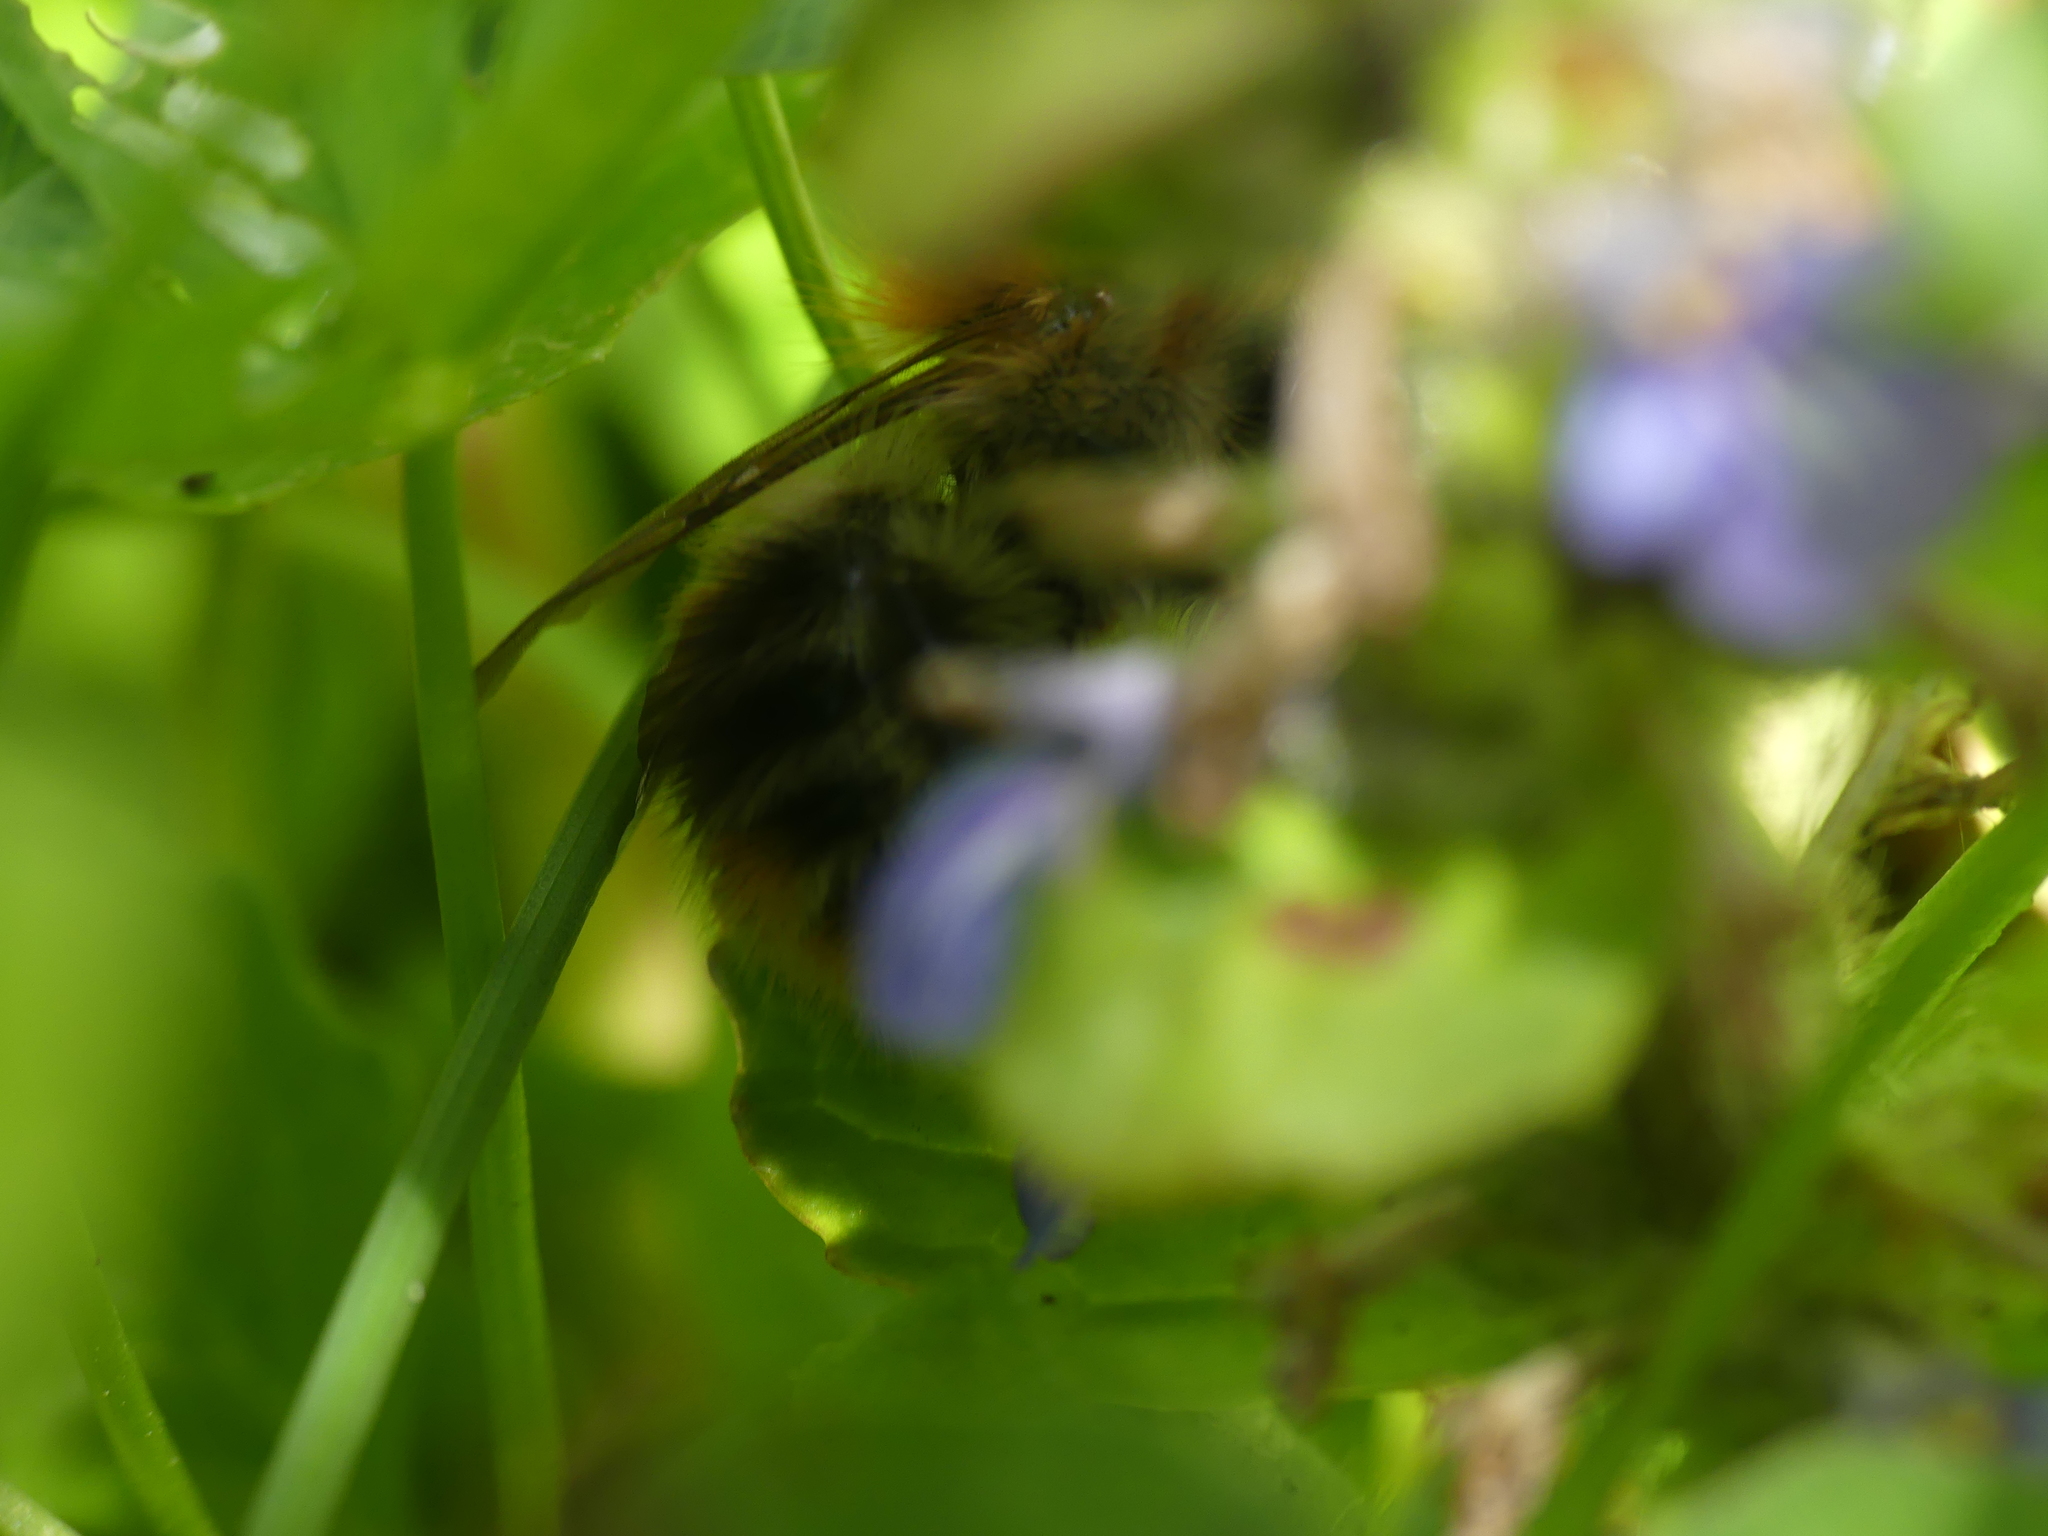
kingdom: Animalia
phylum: Arthropoda
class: Insecta
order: Hymenoptera
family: Apidae
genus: Bombus
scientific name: Bombus pascuorum
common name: Common carder bee
